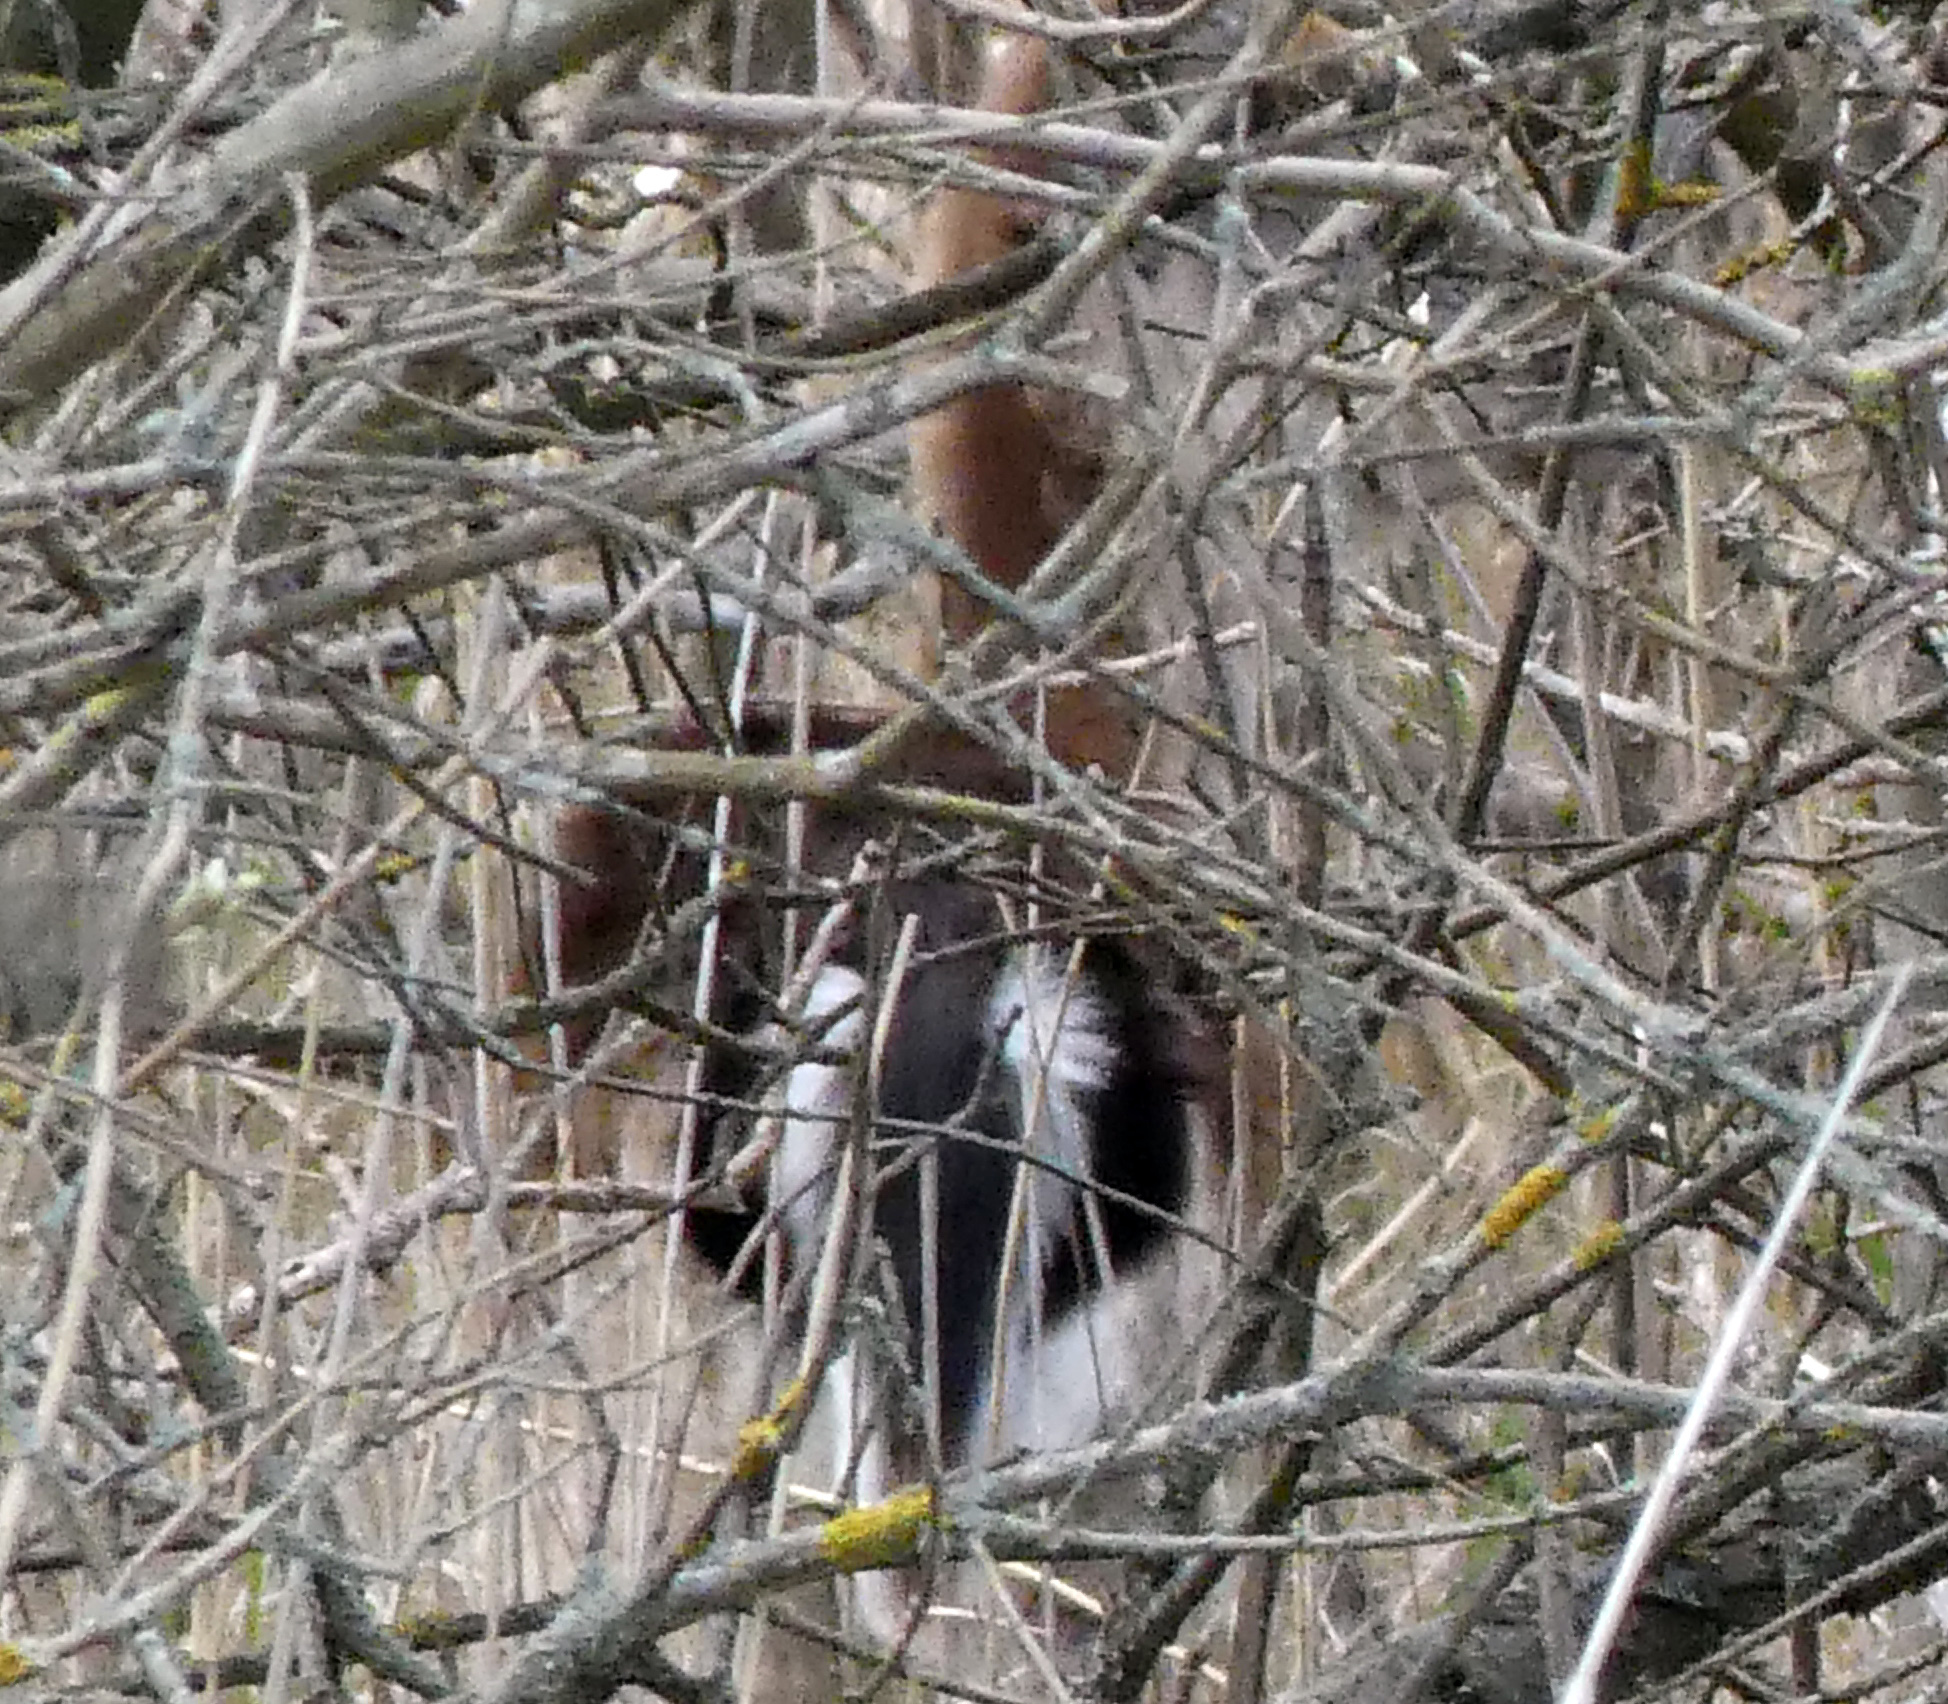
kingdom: Animalia
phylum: Chordata
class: Mammalia
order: Artiodactyla
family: Cervidae
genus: Dama
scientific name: Dama dama
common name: Fallow deer
